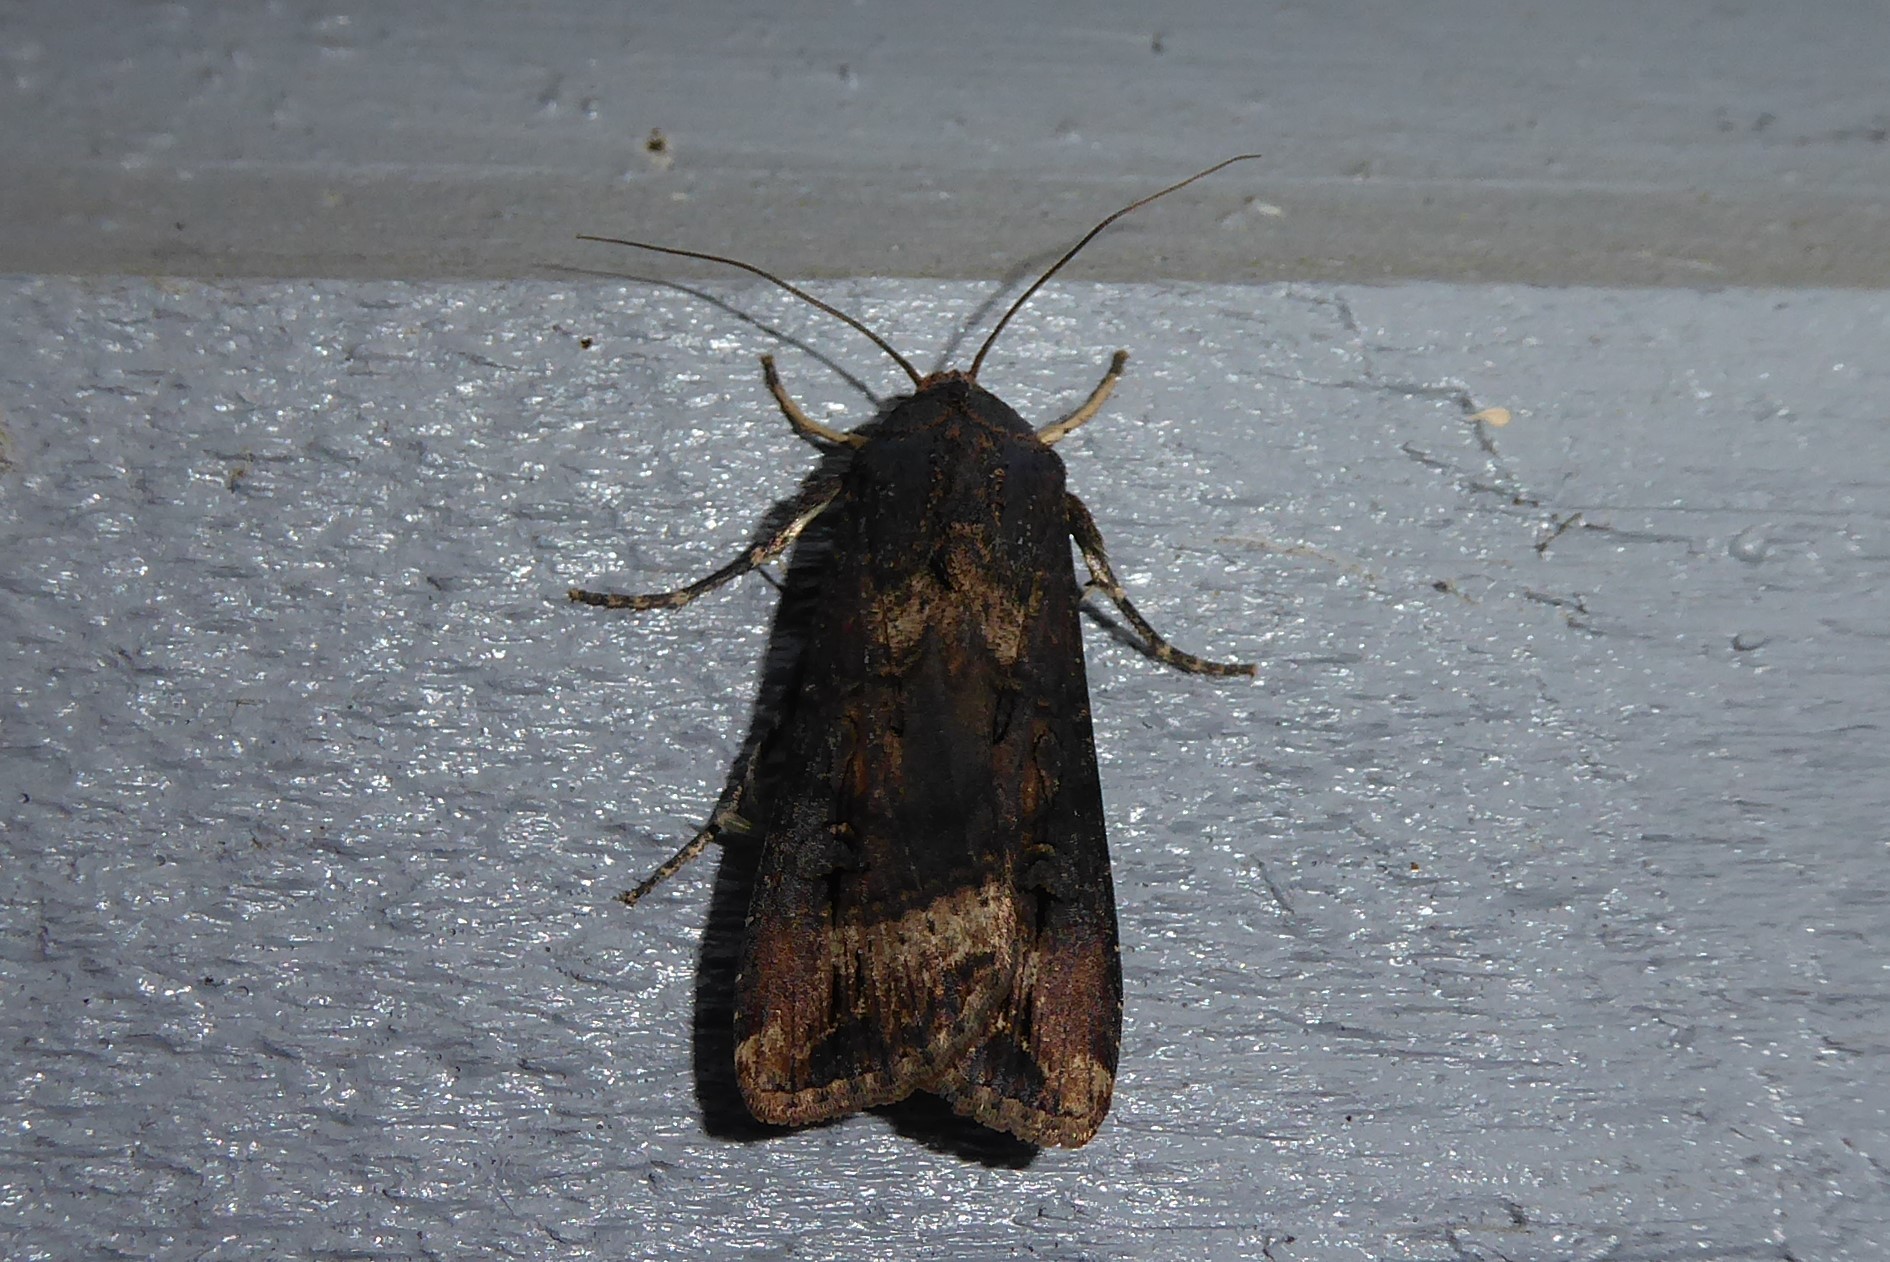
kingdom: Animalia
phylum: Arthropoda
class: Insecta
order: Lepidoptera
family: Noctuidae
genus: Agrotis
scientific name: Agrotis ipsilon
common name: Dark sword-grass
